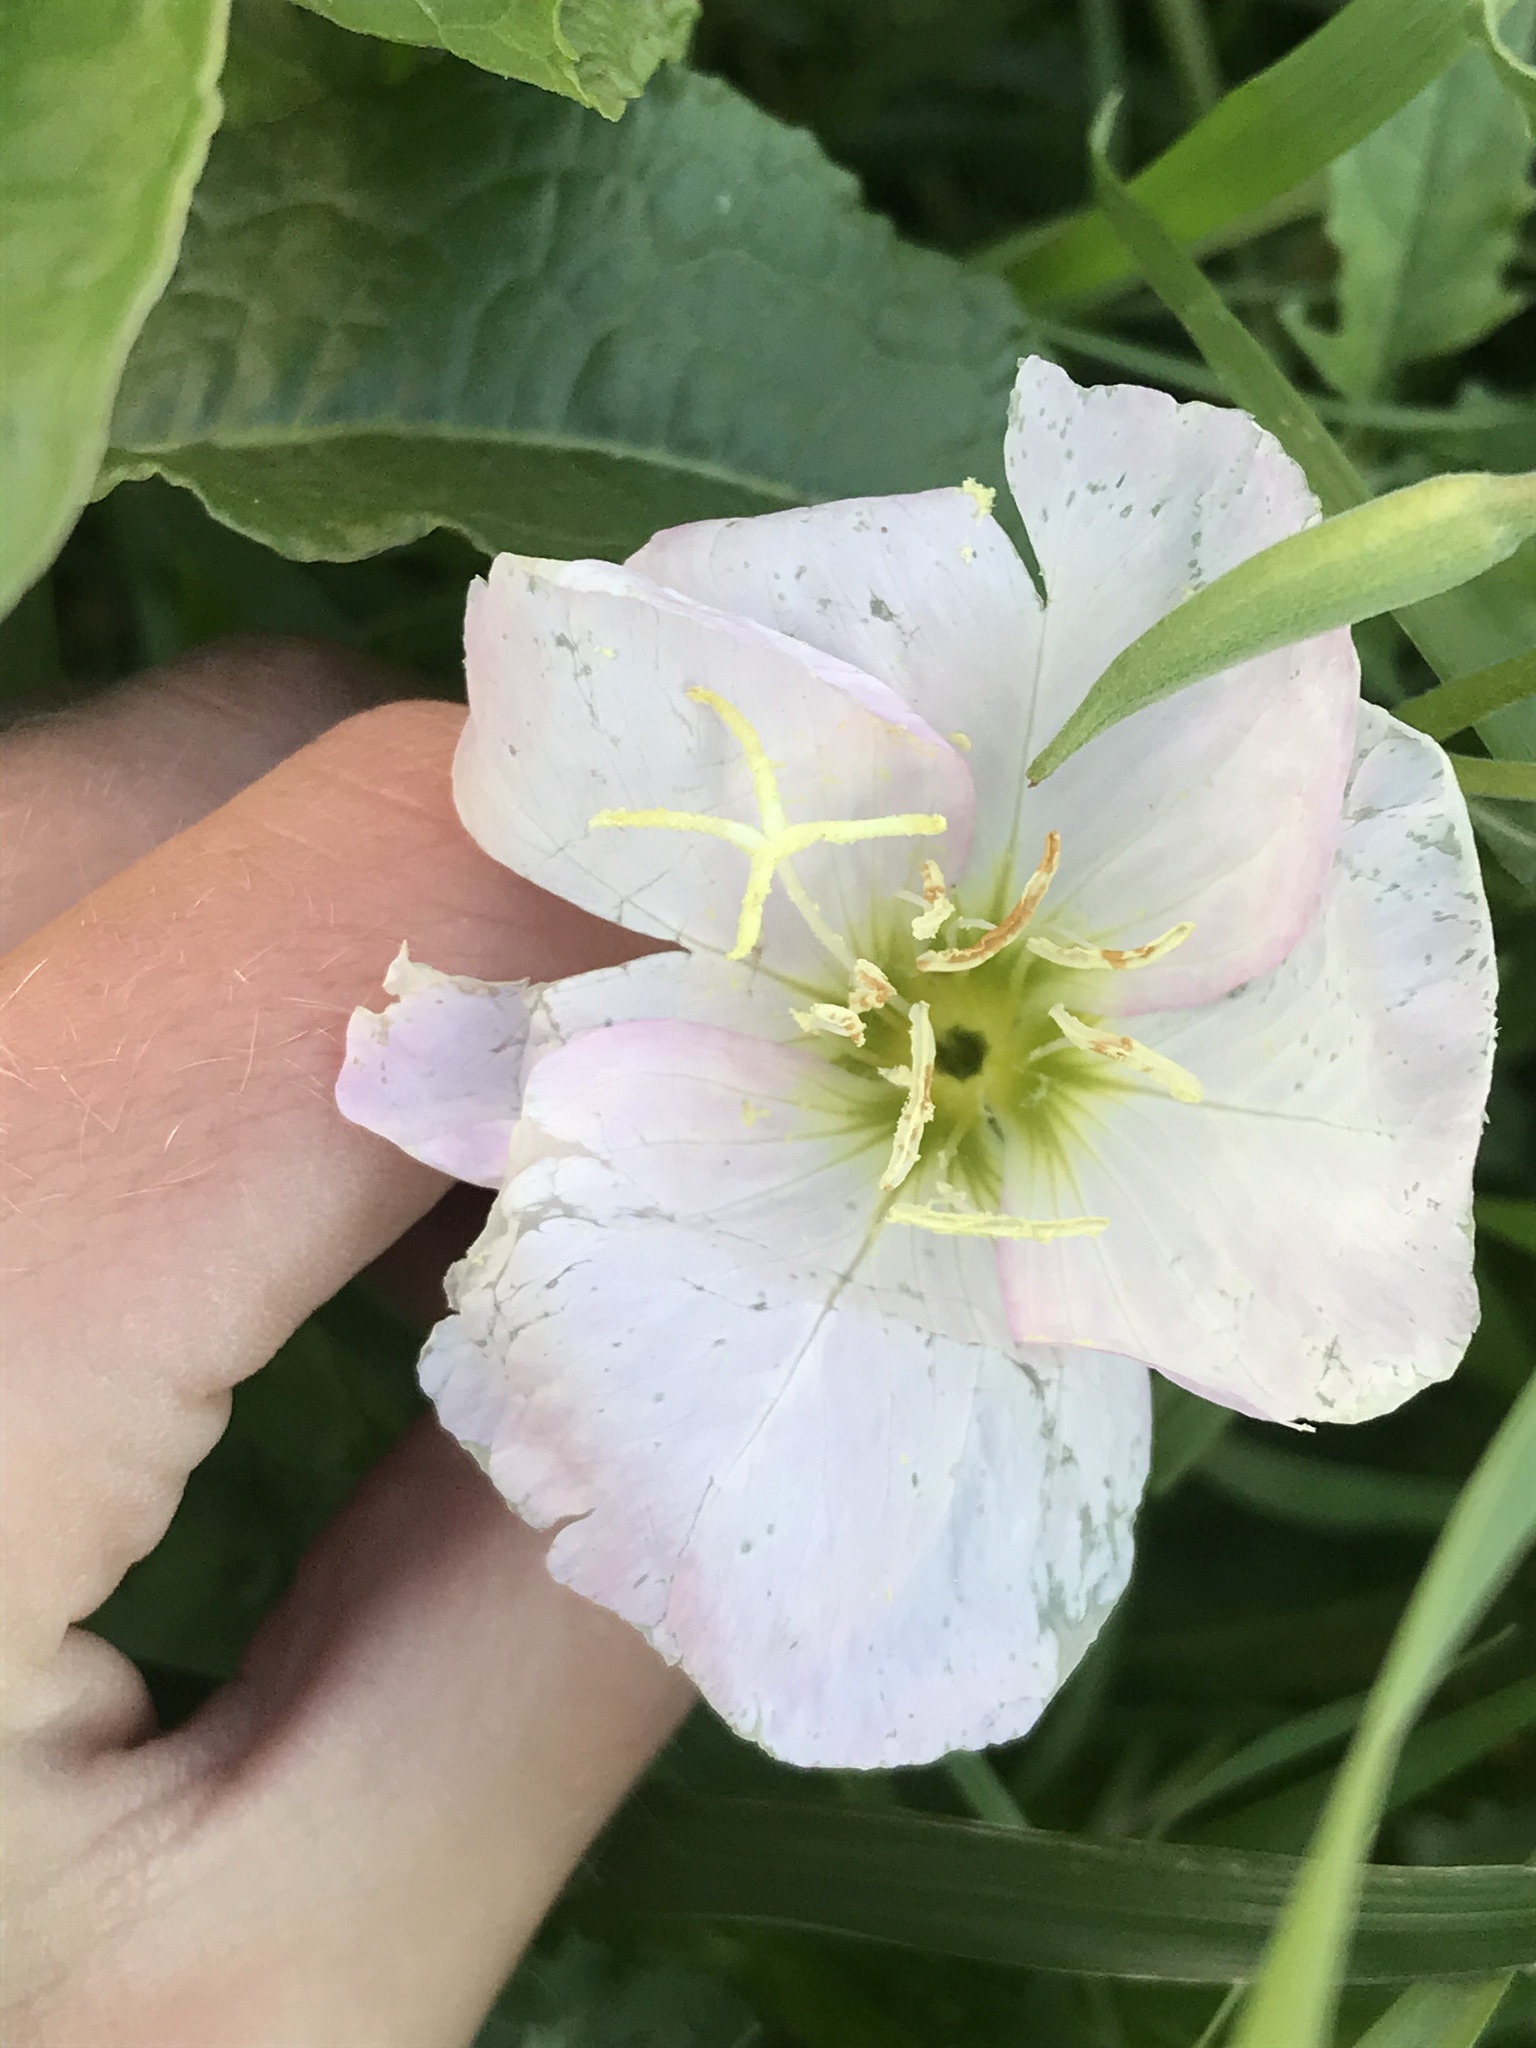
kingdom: Plantae
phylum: Tracheophyta
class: Magnoliopsida
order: Myrtales
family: Onagraceae
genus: Oenothera
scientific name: Oenothera speciosa
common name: White evening-primrose
